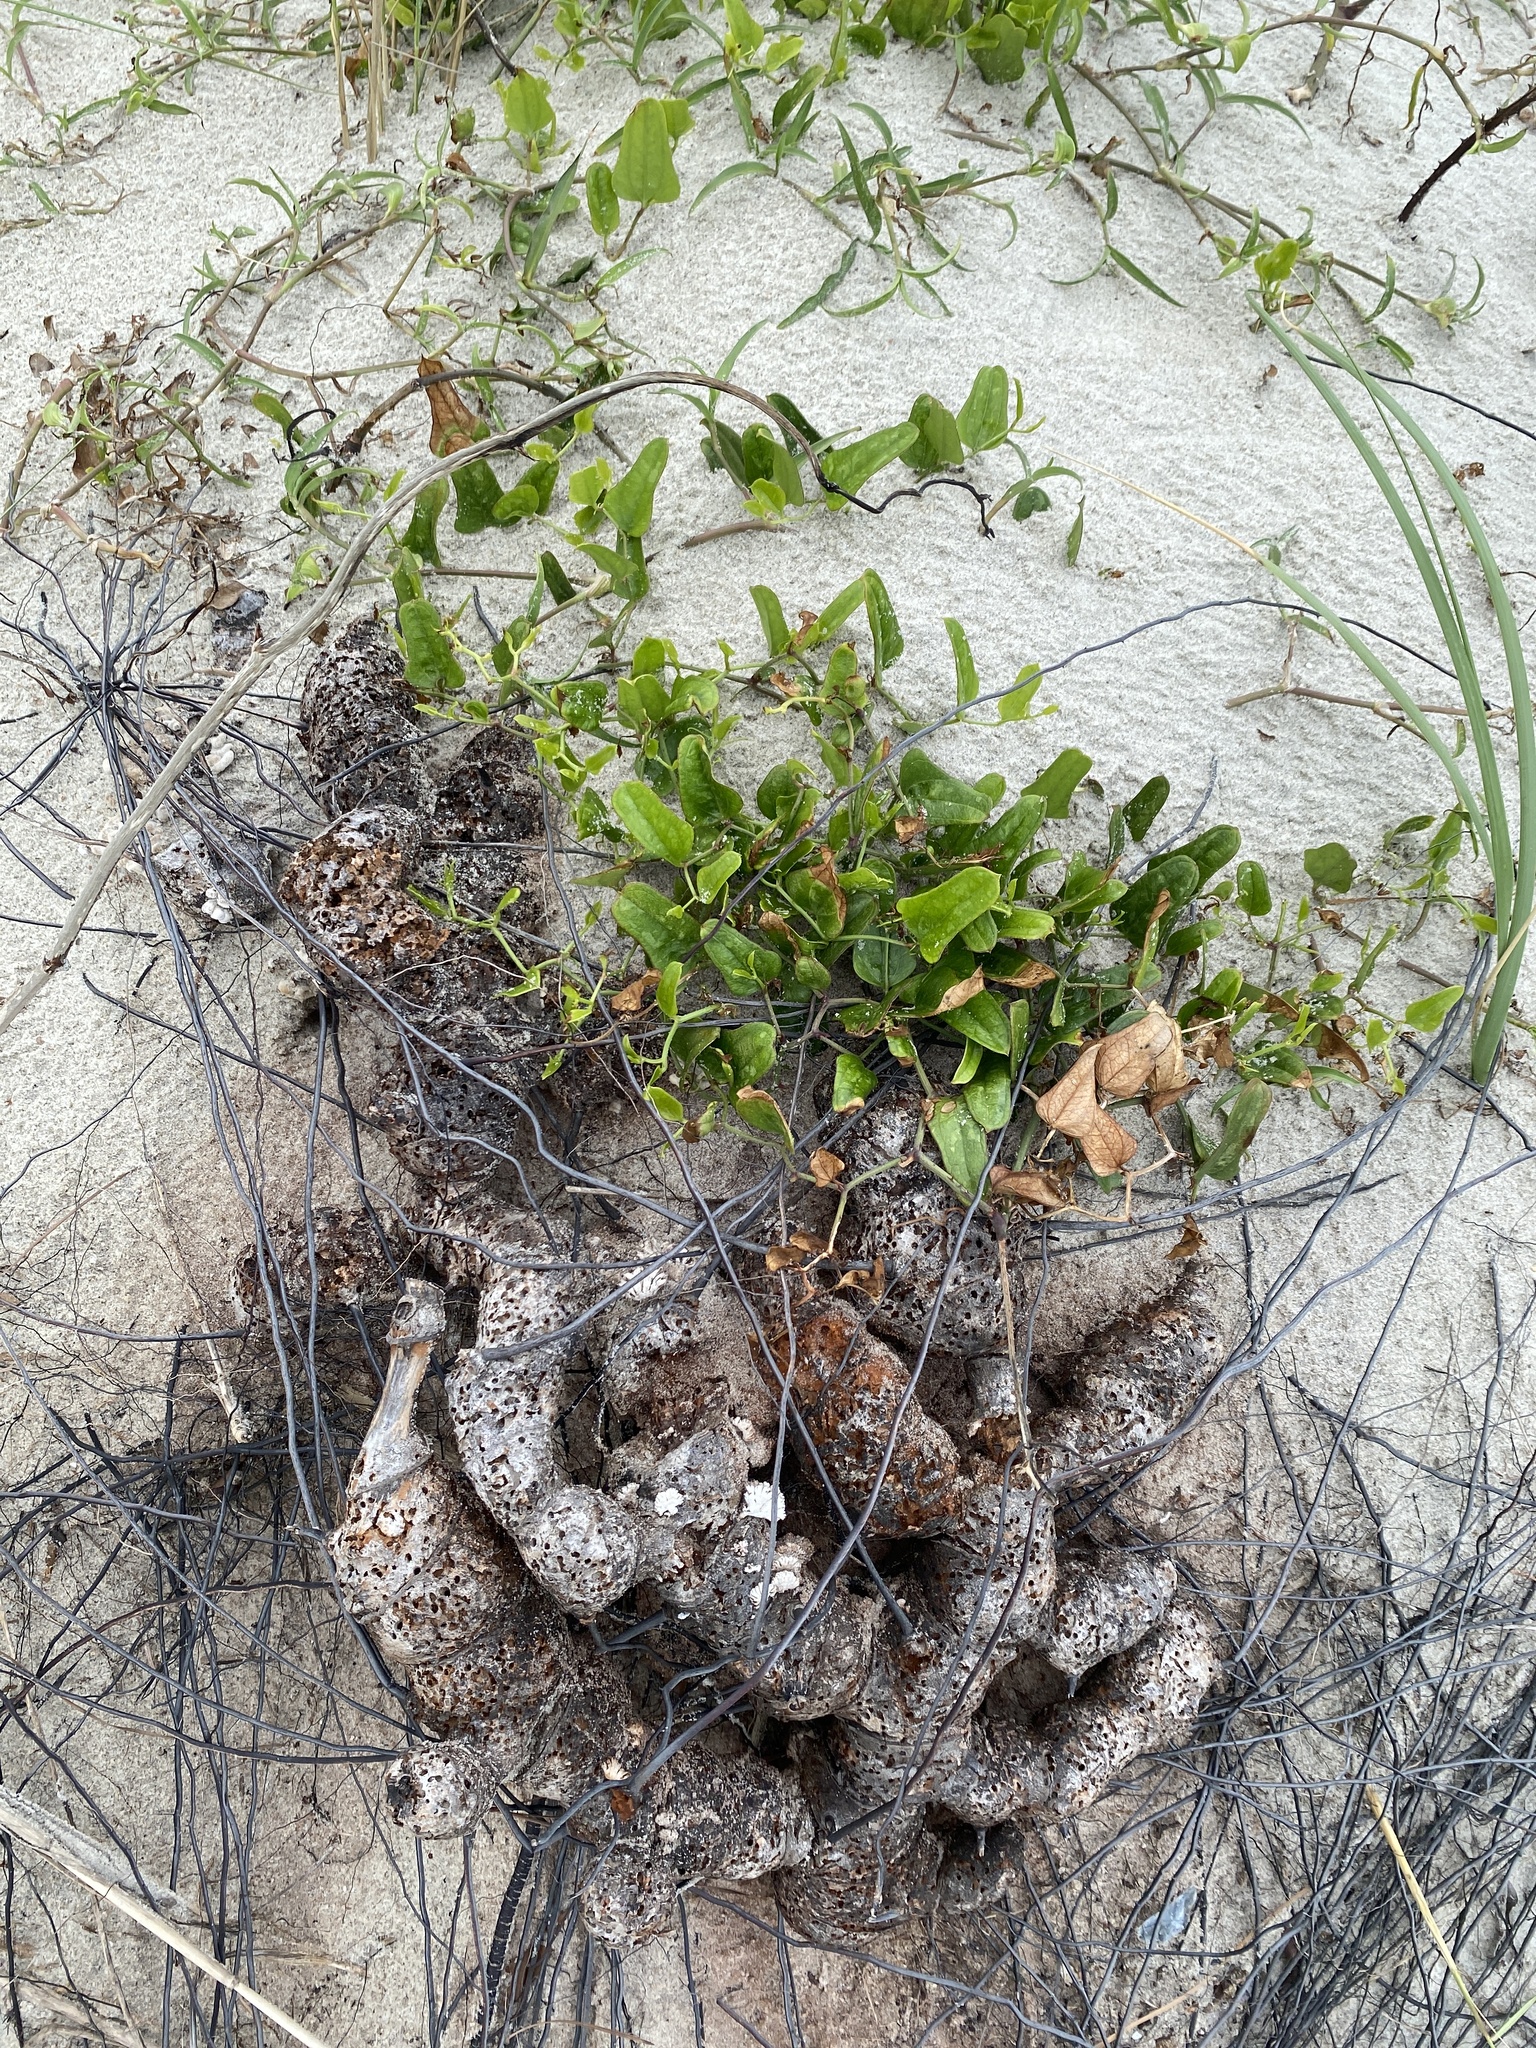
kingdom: Plantae
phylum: Tracheophyta
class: Liliopsida
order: Liliales
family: Smilacaceae
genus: Smilax
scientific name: Smilax auriculata
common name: Wild bamboo
